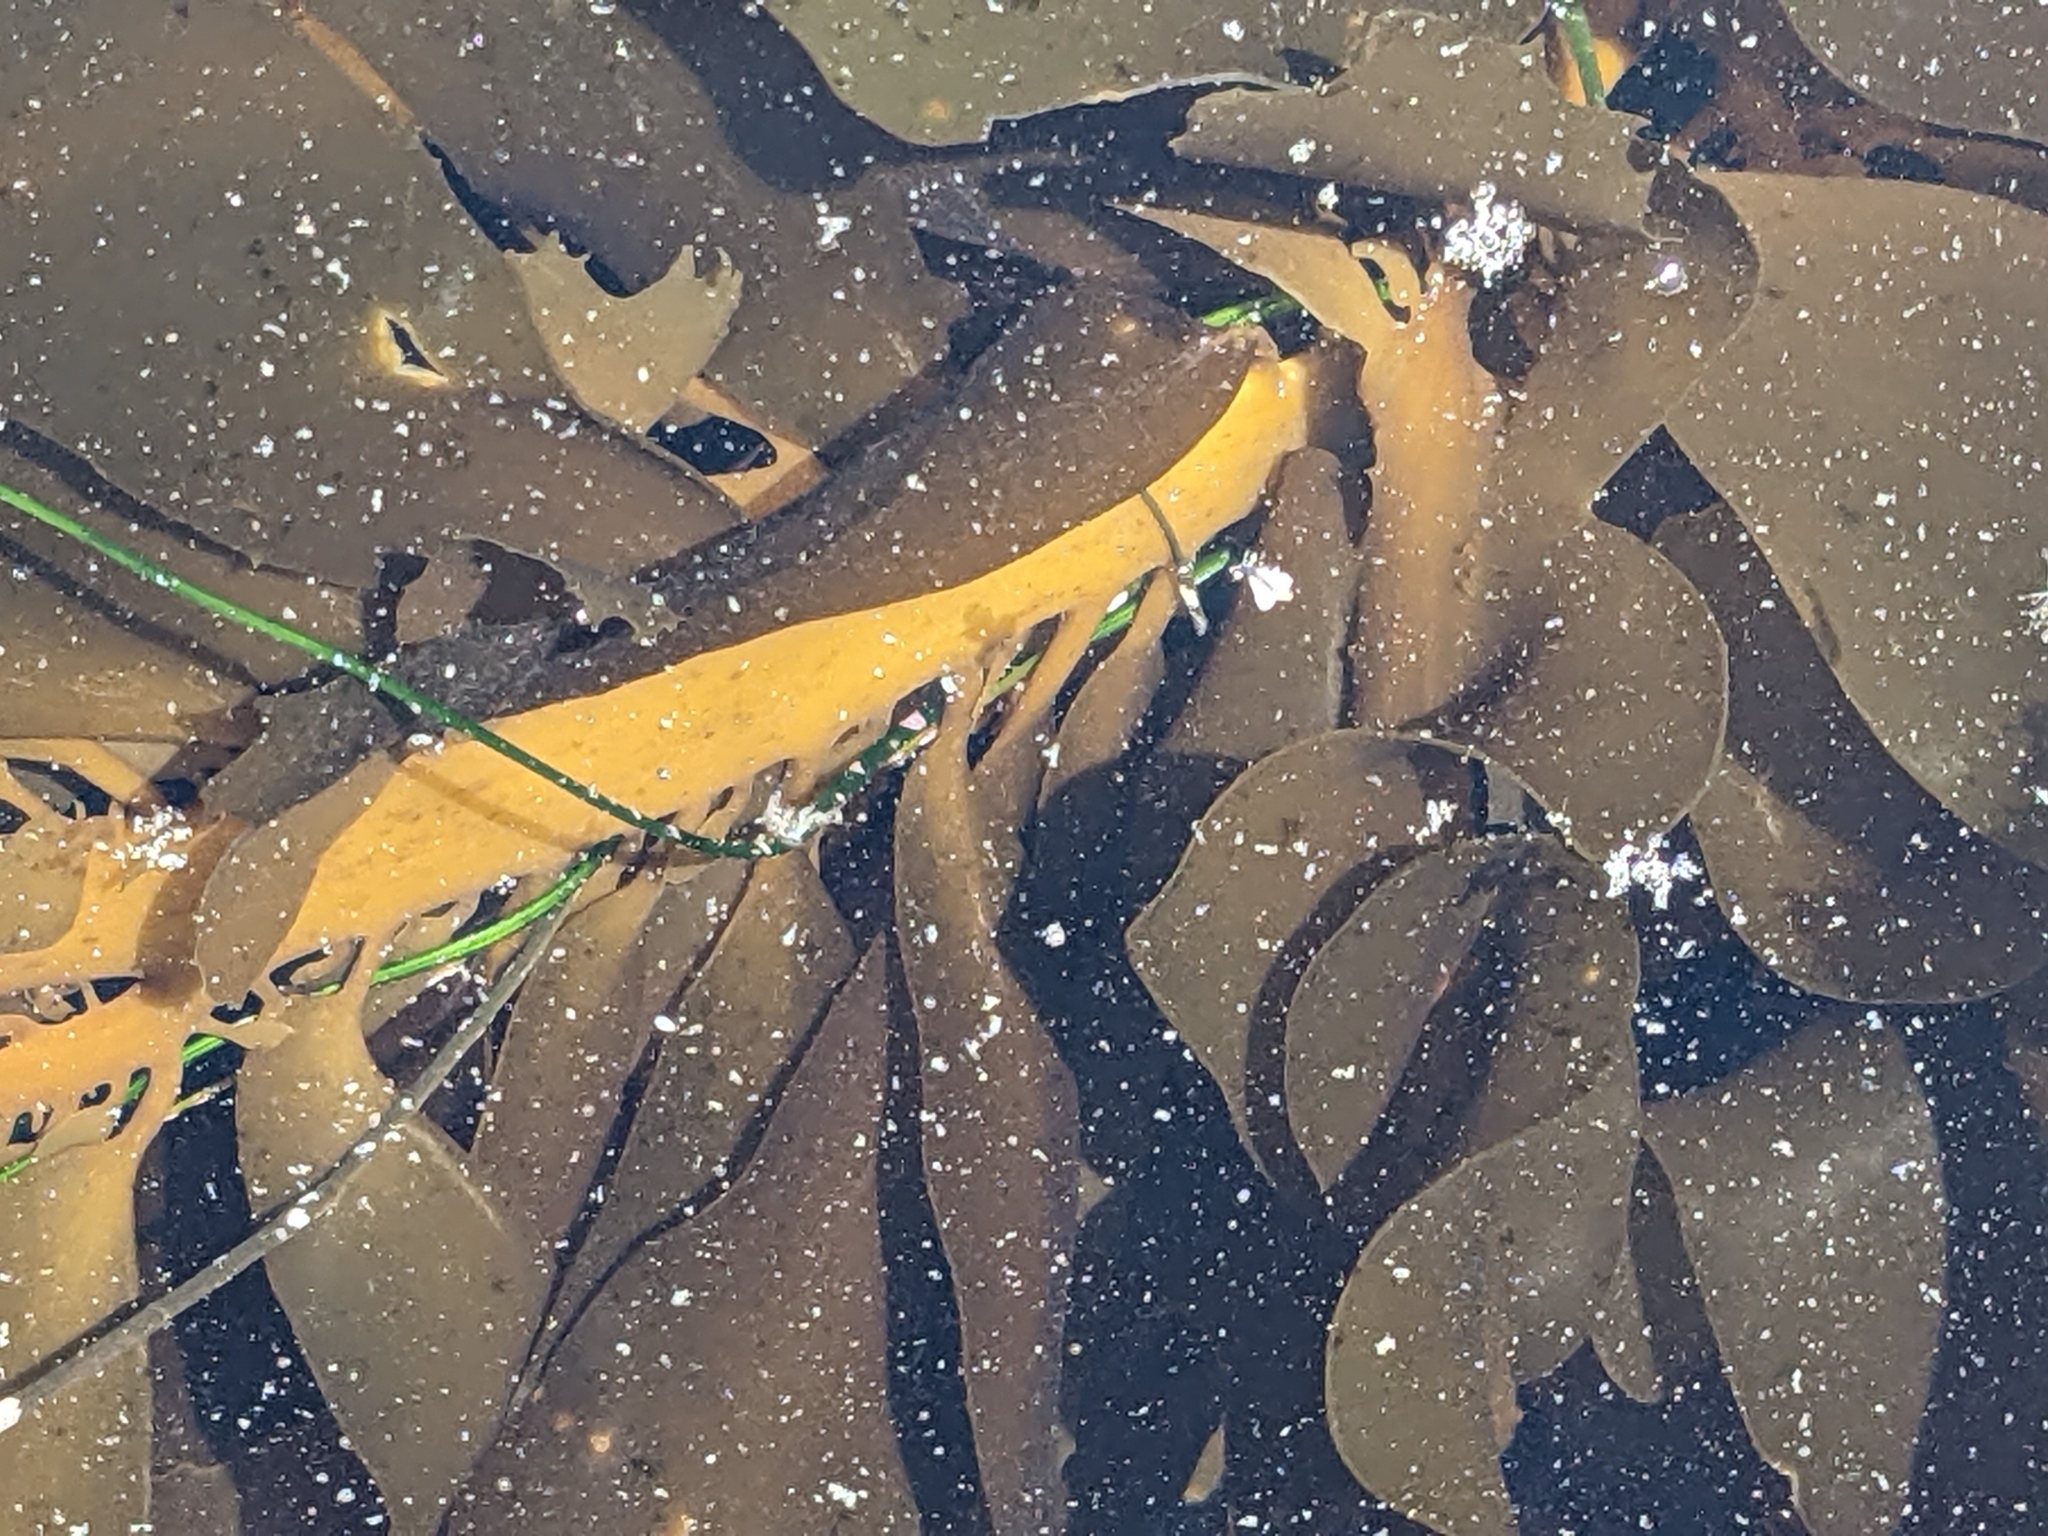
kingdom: Chromista
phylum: Ochrophyta
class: Phaeophyceae
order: Laminariales
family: Lessoniaceae
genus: Egregia
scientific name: Egregia menziesii
